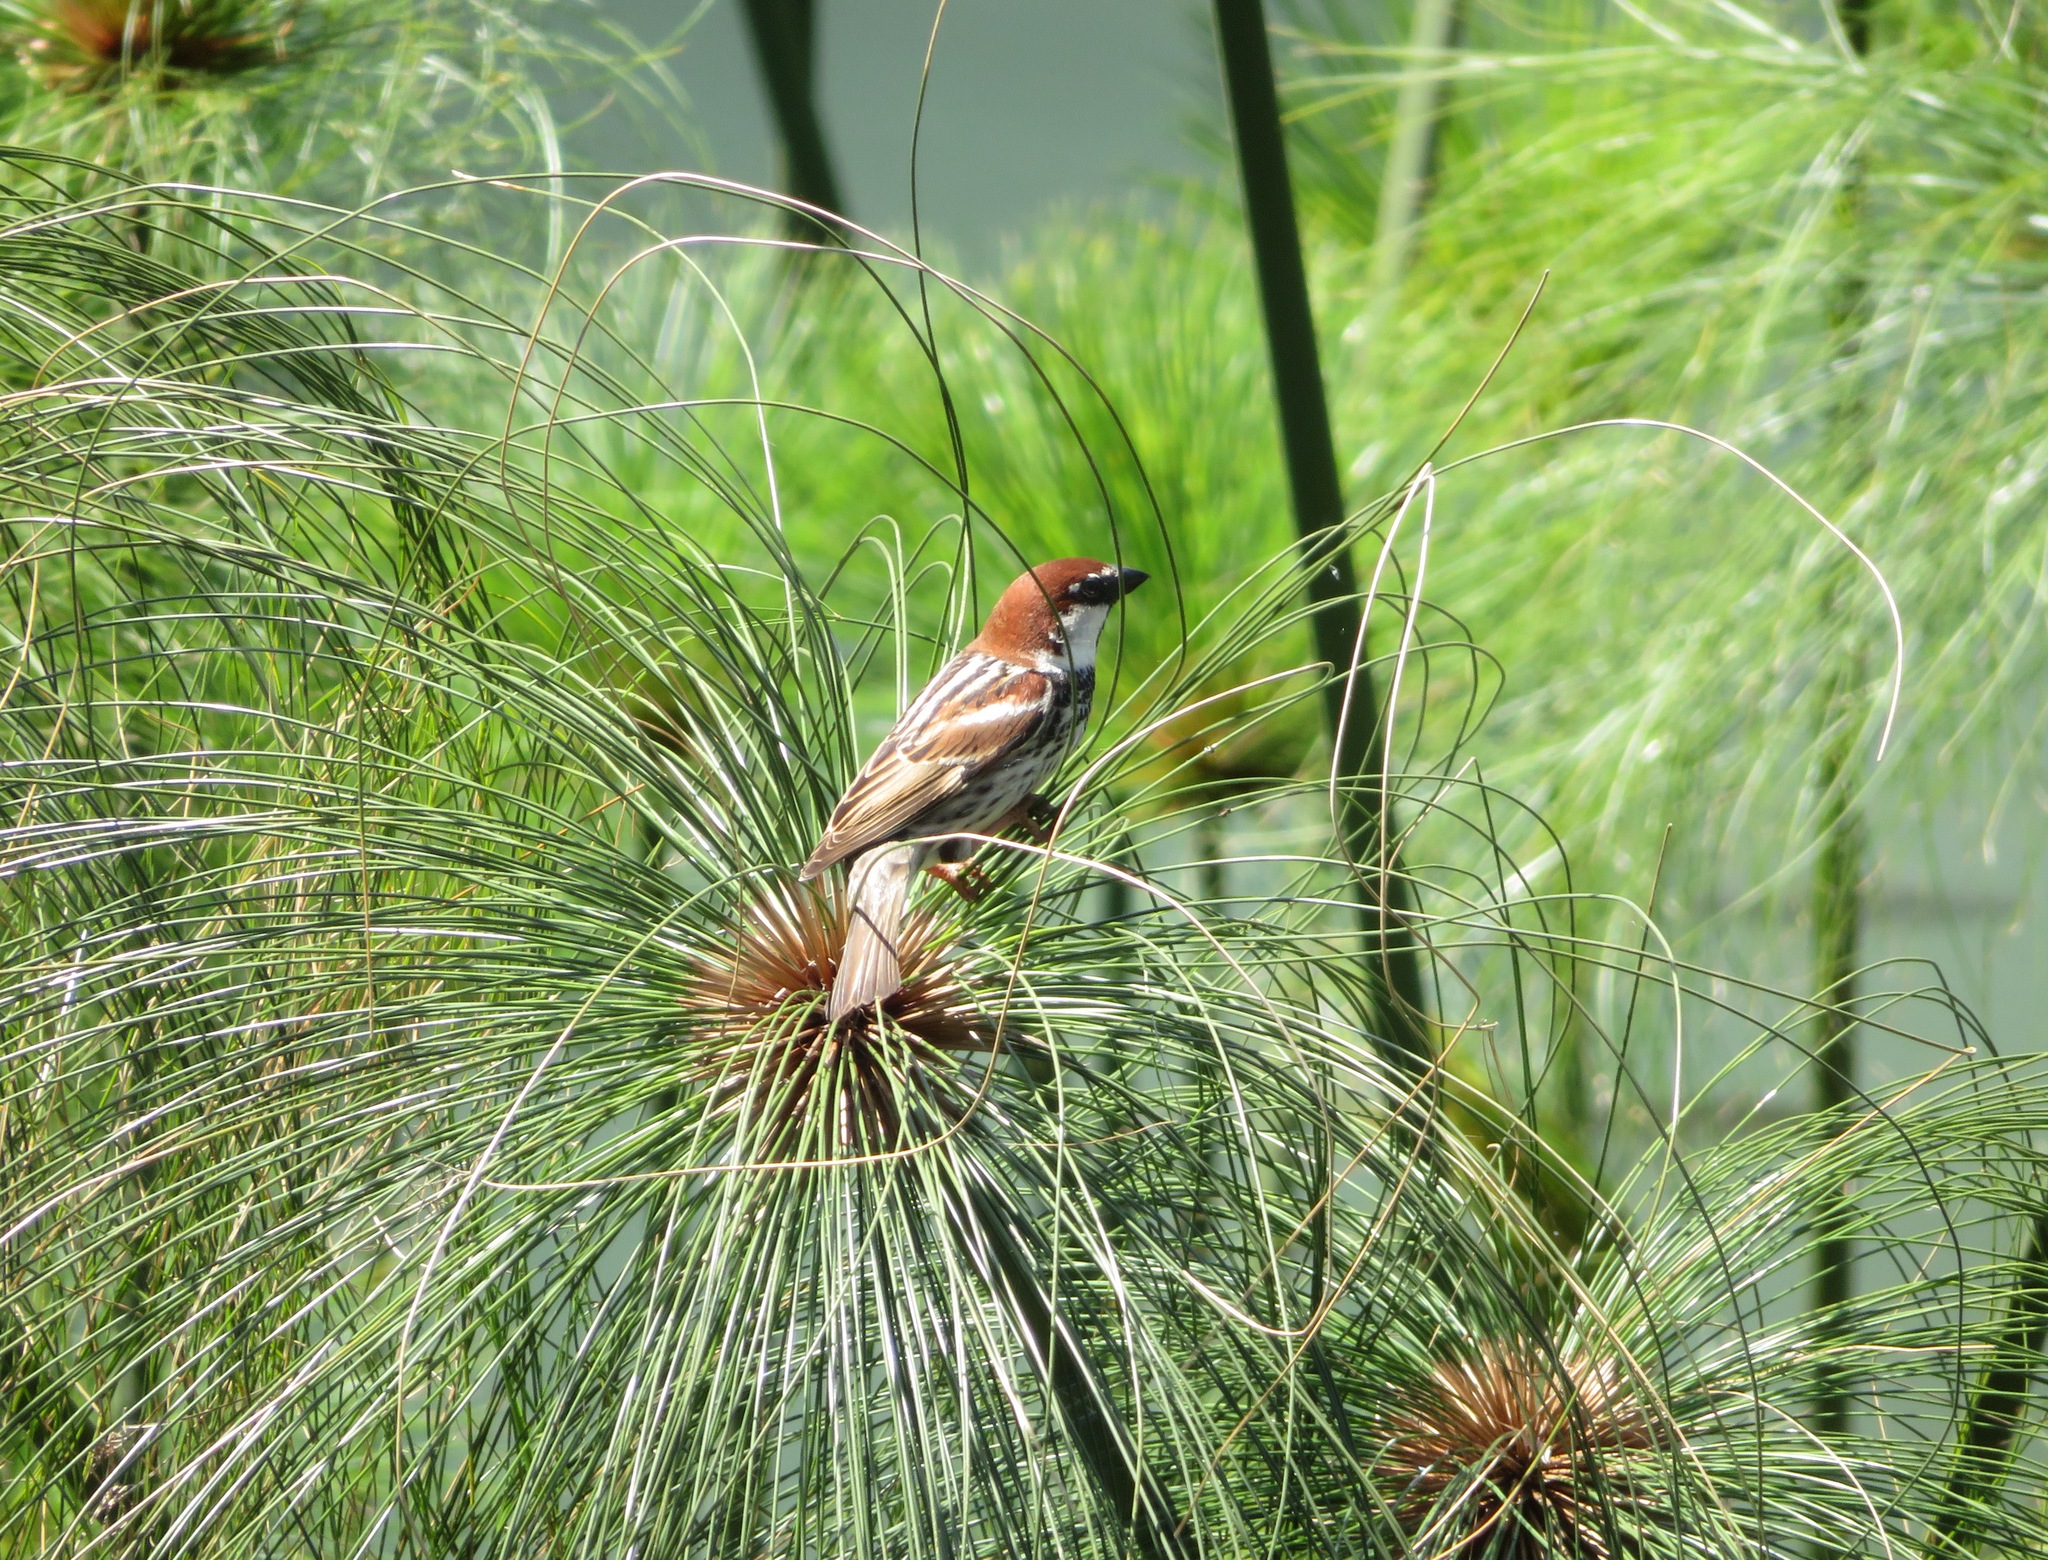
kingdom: Animalia
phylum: Chordata
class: Aves
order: Passeriformes
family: Passeridae
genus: Passer
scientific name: Passer italiae
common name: Italian sparrow
